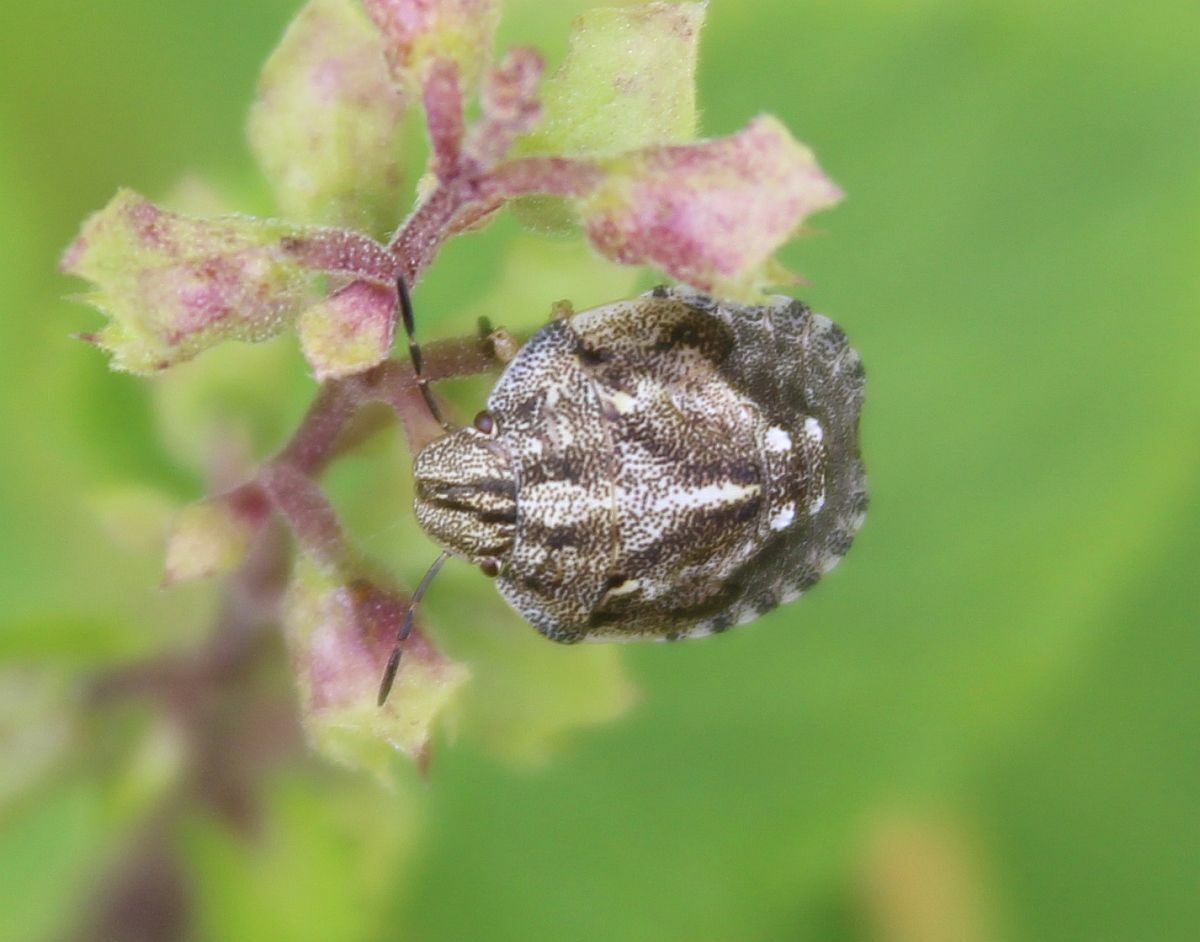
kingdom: Animalia
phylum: Arthropoda
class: Insecta
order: Hemiptera
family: Scutelleridae
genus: Eurygaster
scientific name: Eurygaster testudinaria
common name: Tortoise bug
